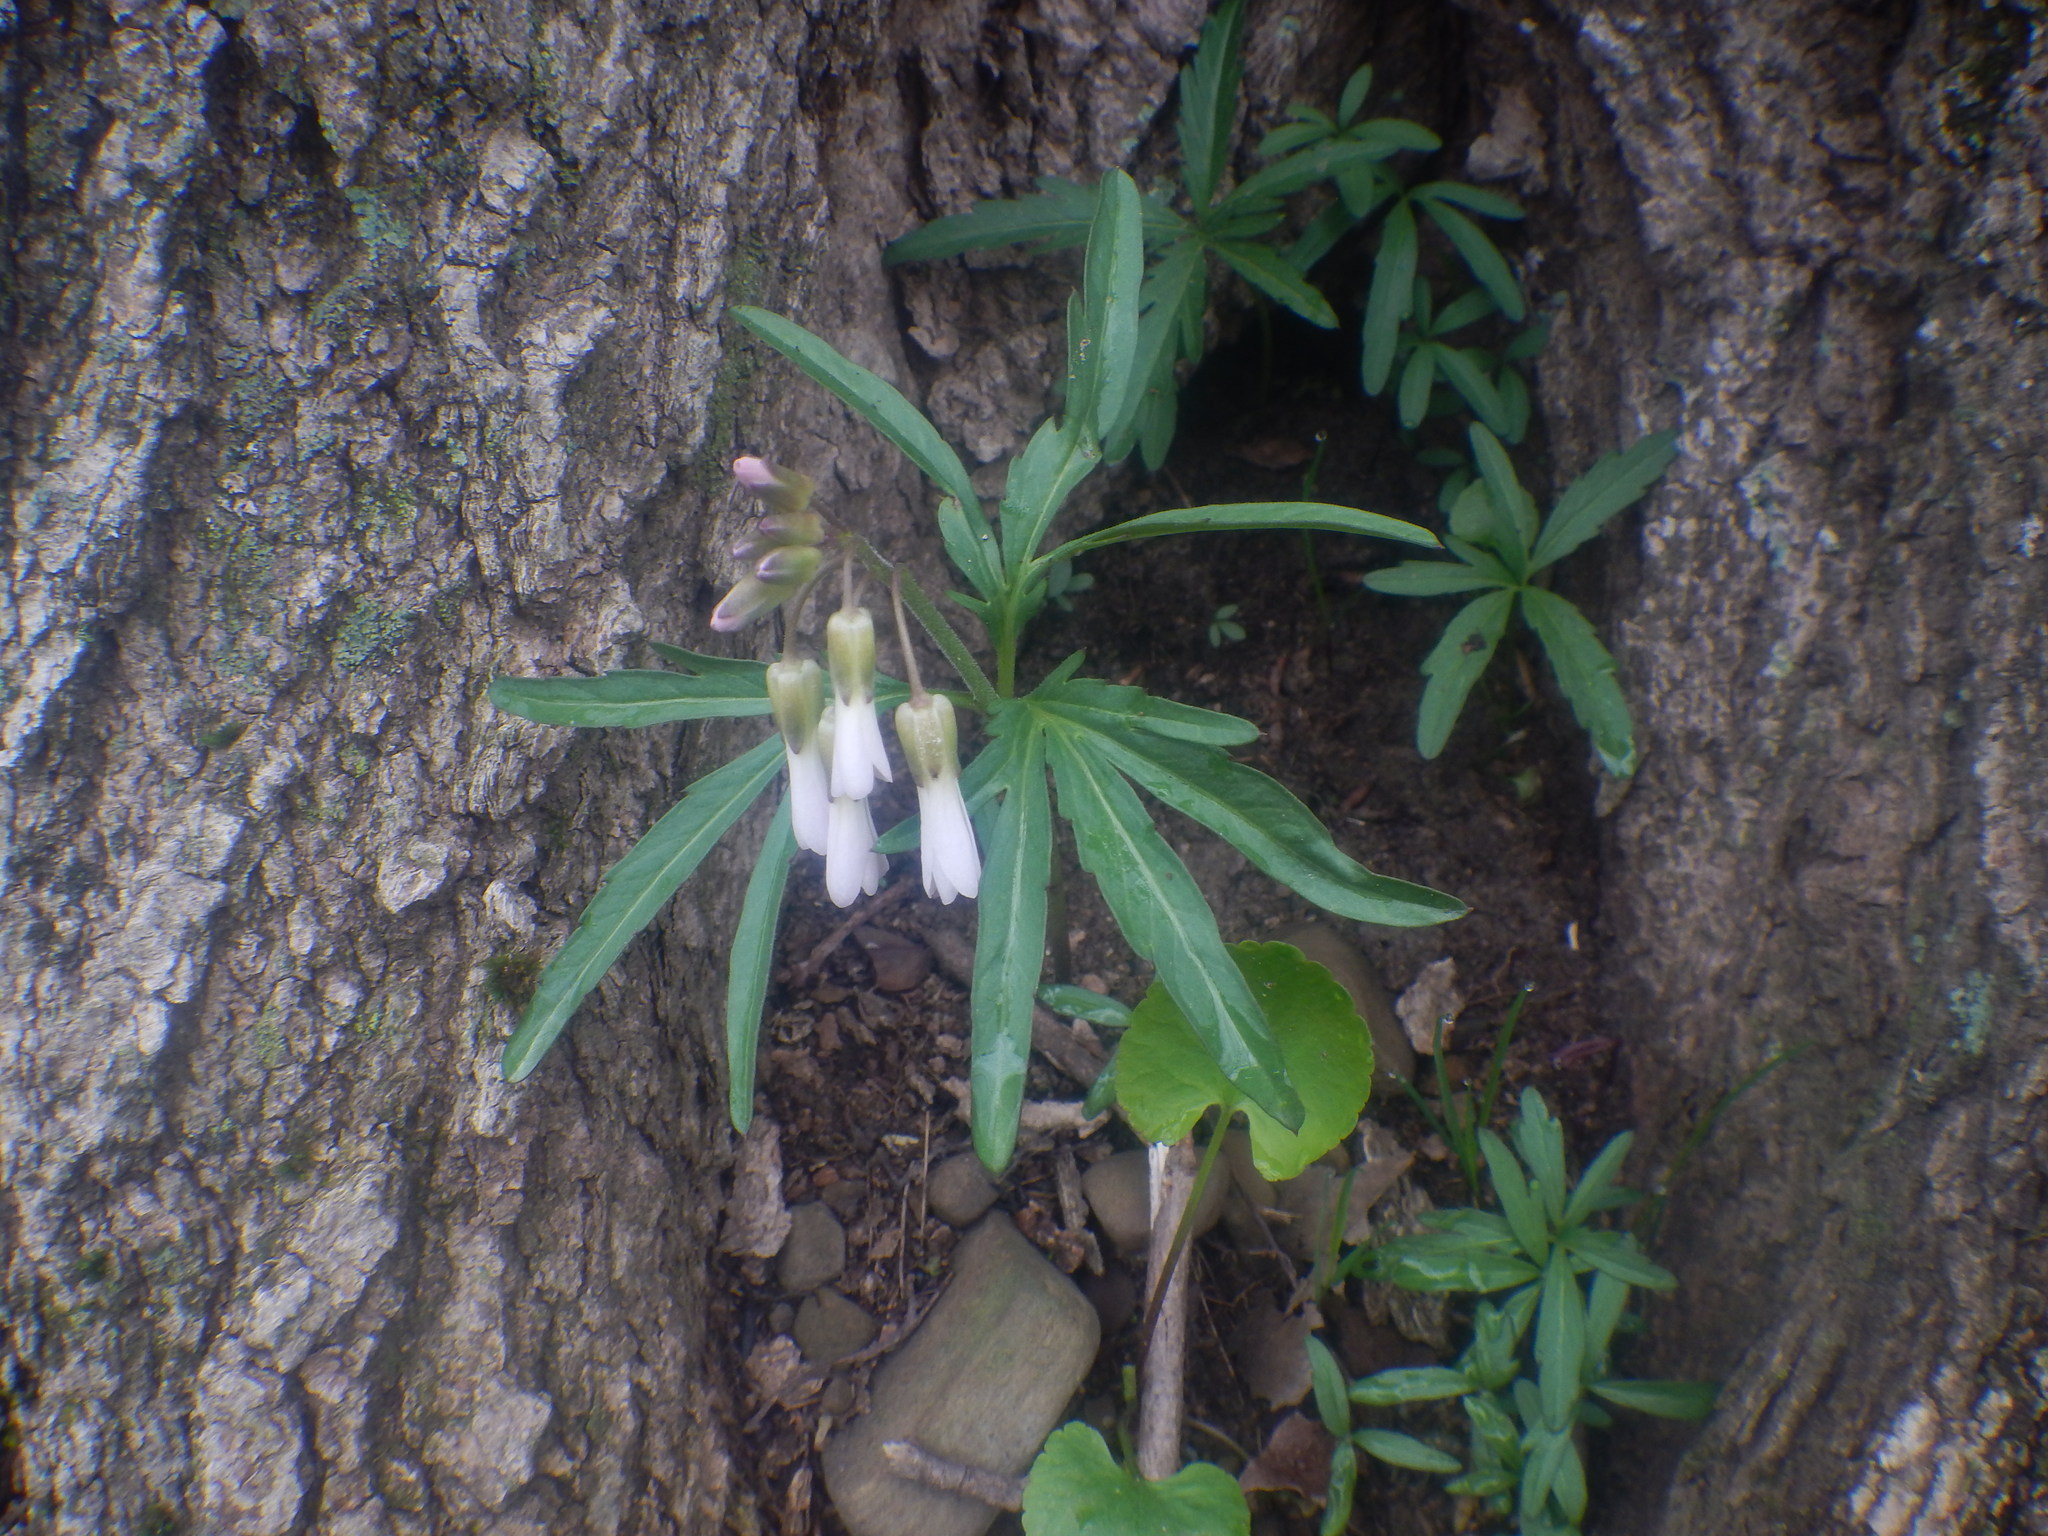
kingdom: Plantae
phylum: Tracheophyta
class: Magnoliopsida
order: Brassicales
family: Brassicaceae
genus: Cardamine
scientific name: Cardamine concatenata
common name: Cut-leaf toothcup
